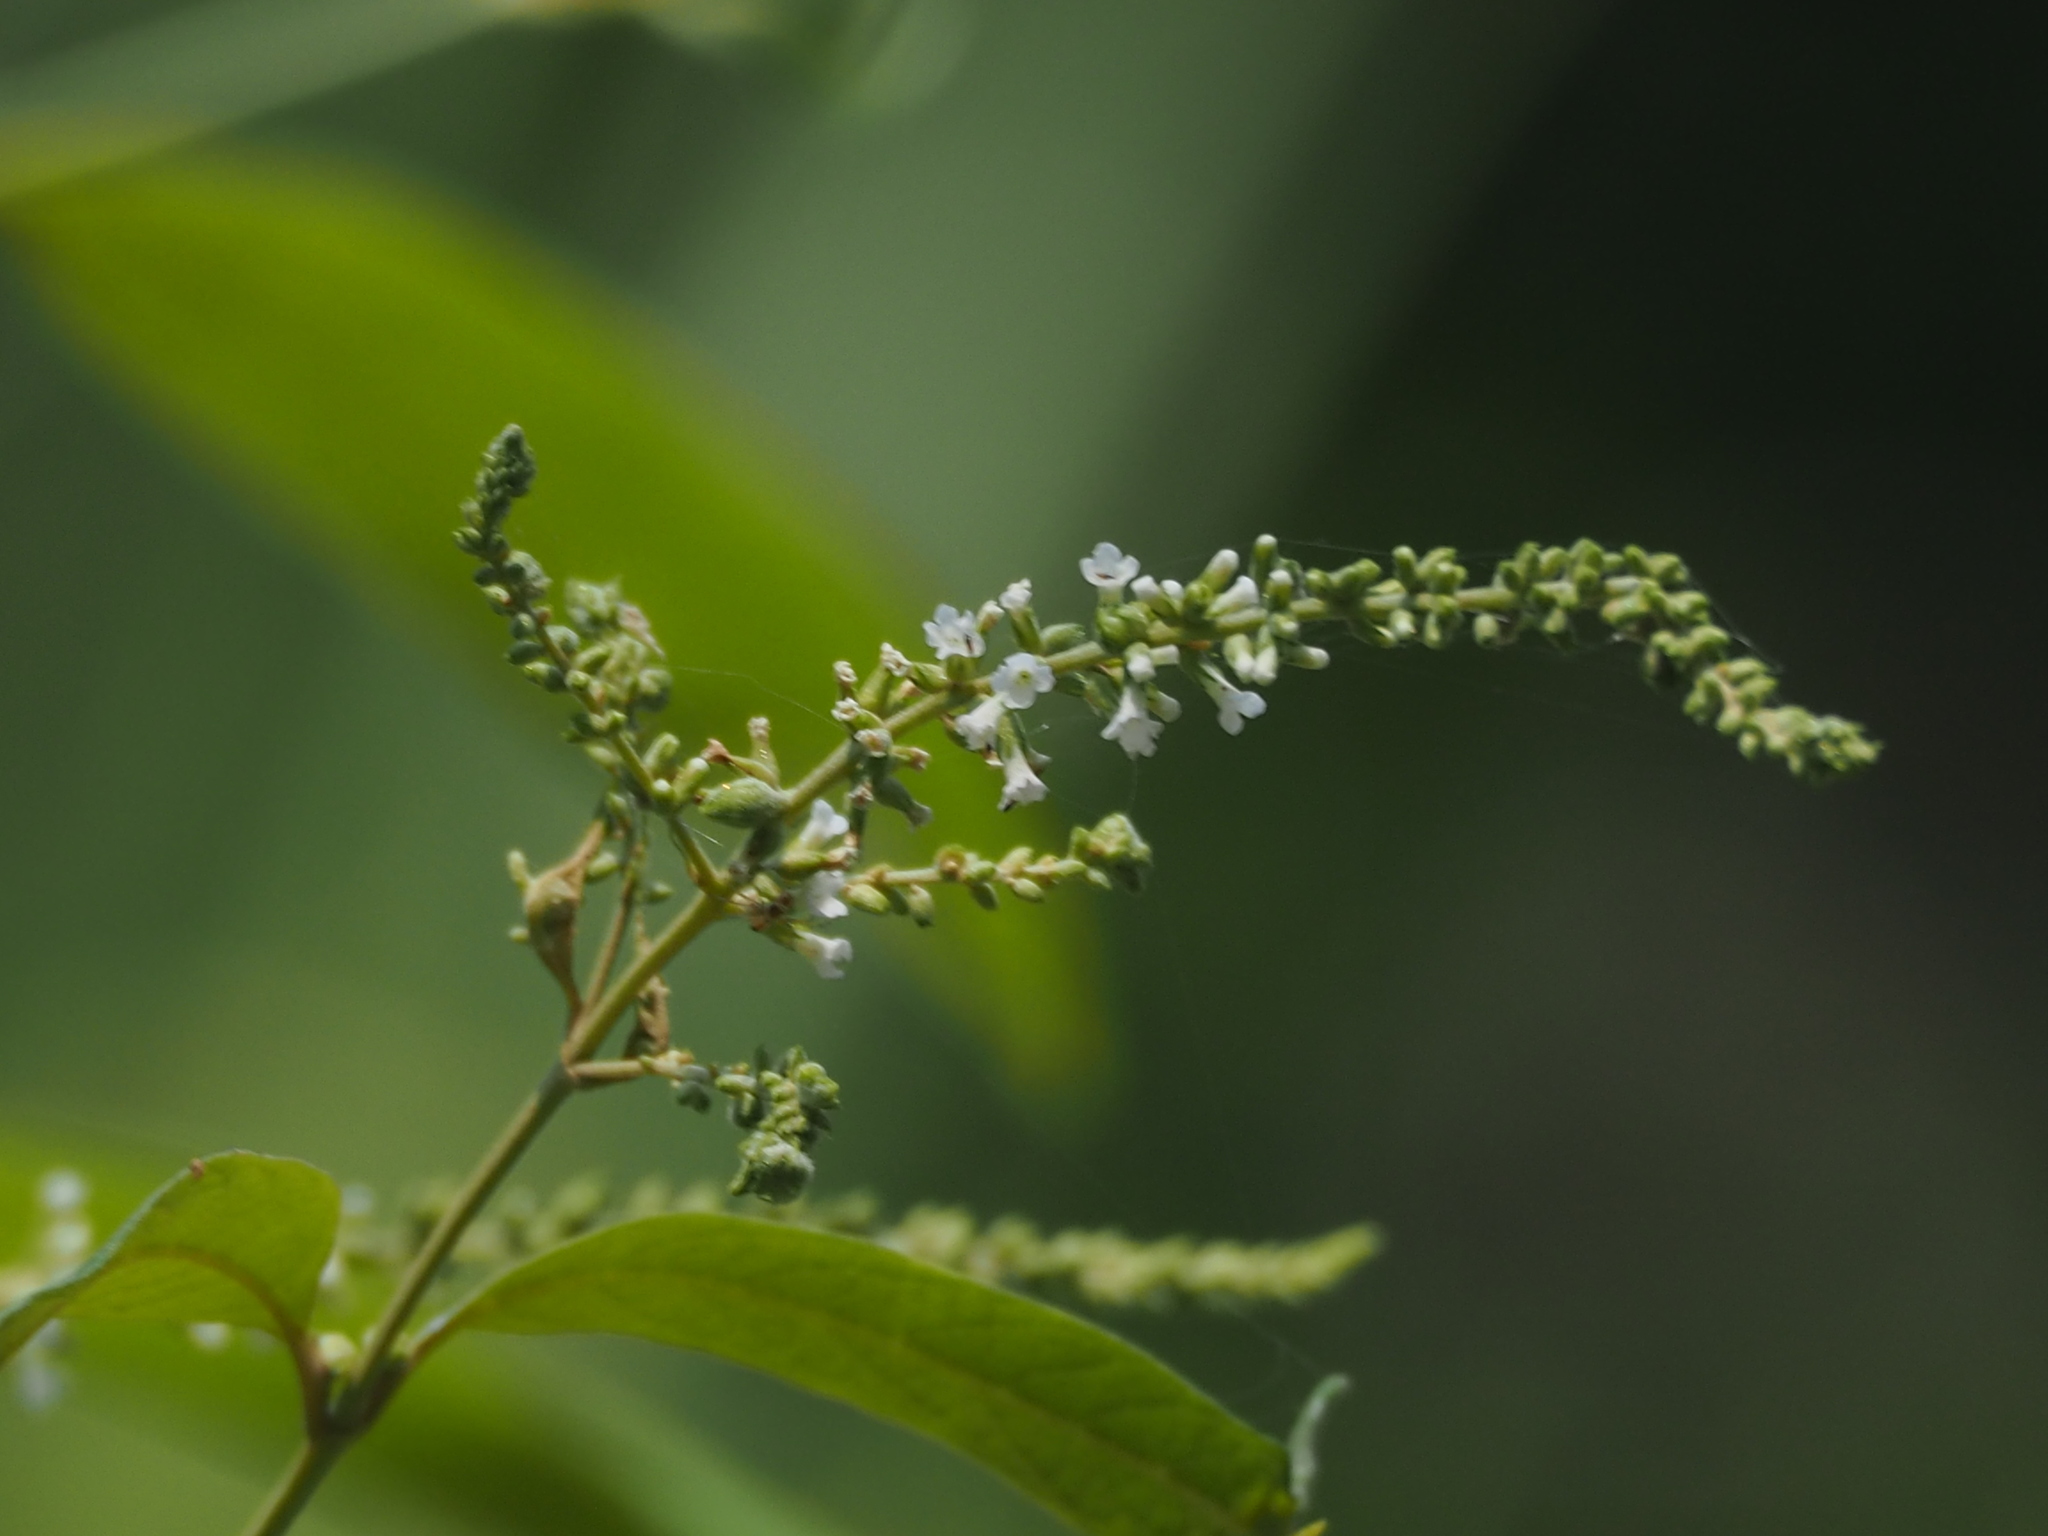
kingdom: Plantae
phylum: Tracheophyta
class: Magnoliopsida
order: Lamiales
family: Scrophulariaceae
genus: Buddleja
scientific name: Buddleja asiatica
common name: Dog tail
